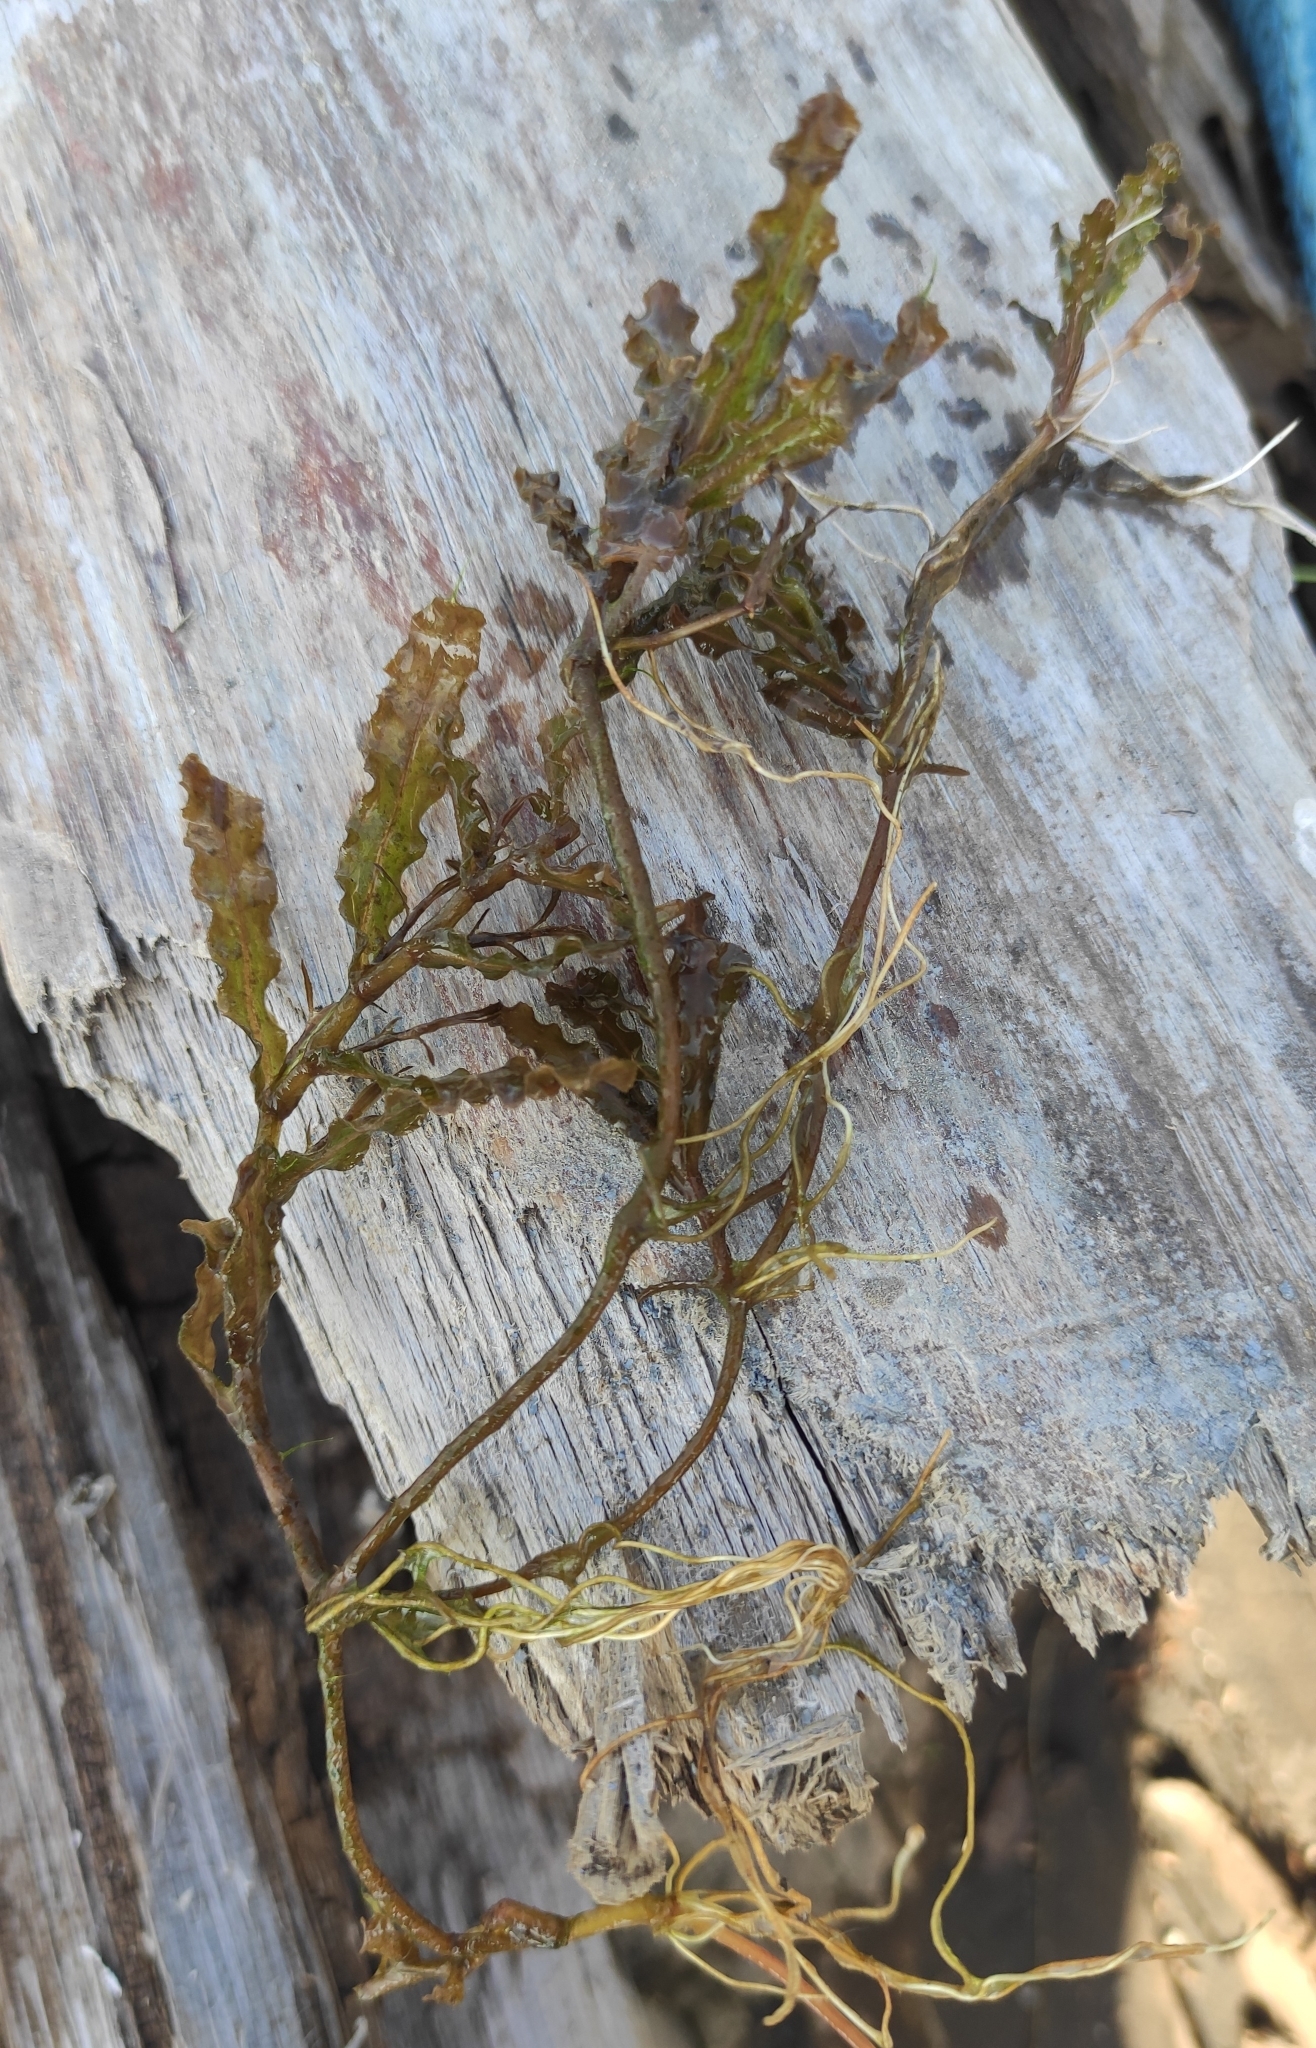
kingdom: Plantae
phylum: Tracheophyta
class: Liliopsida
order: Alismatales
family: Potamogetonaceae
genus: Potamogeton
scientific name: Potamogeton crispus
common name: Curled pondweed
